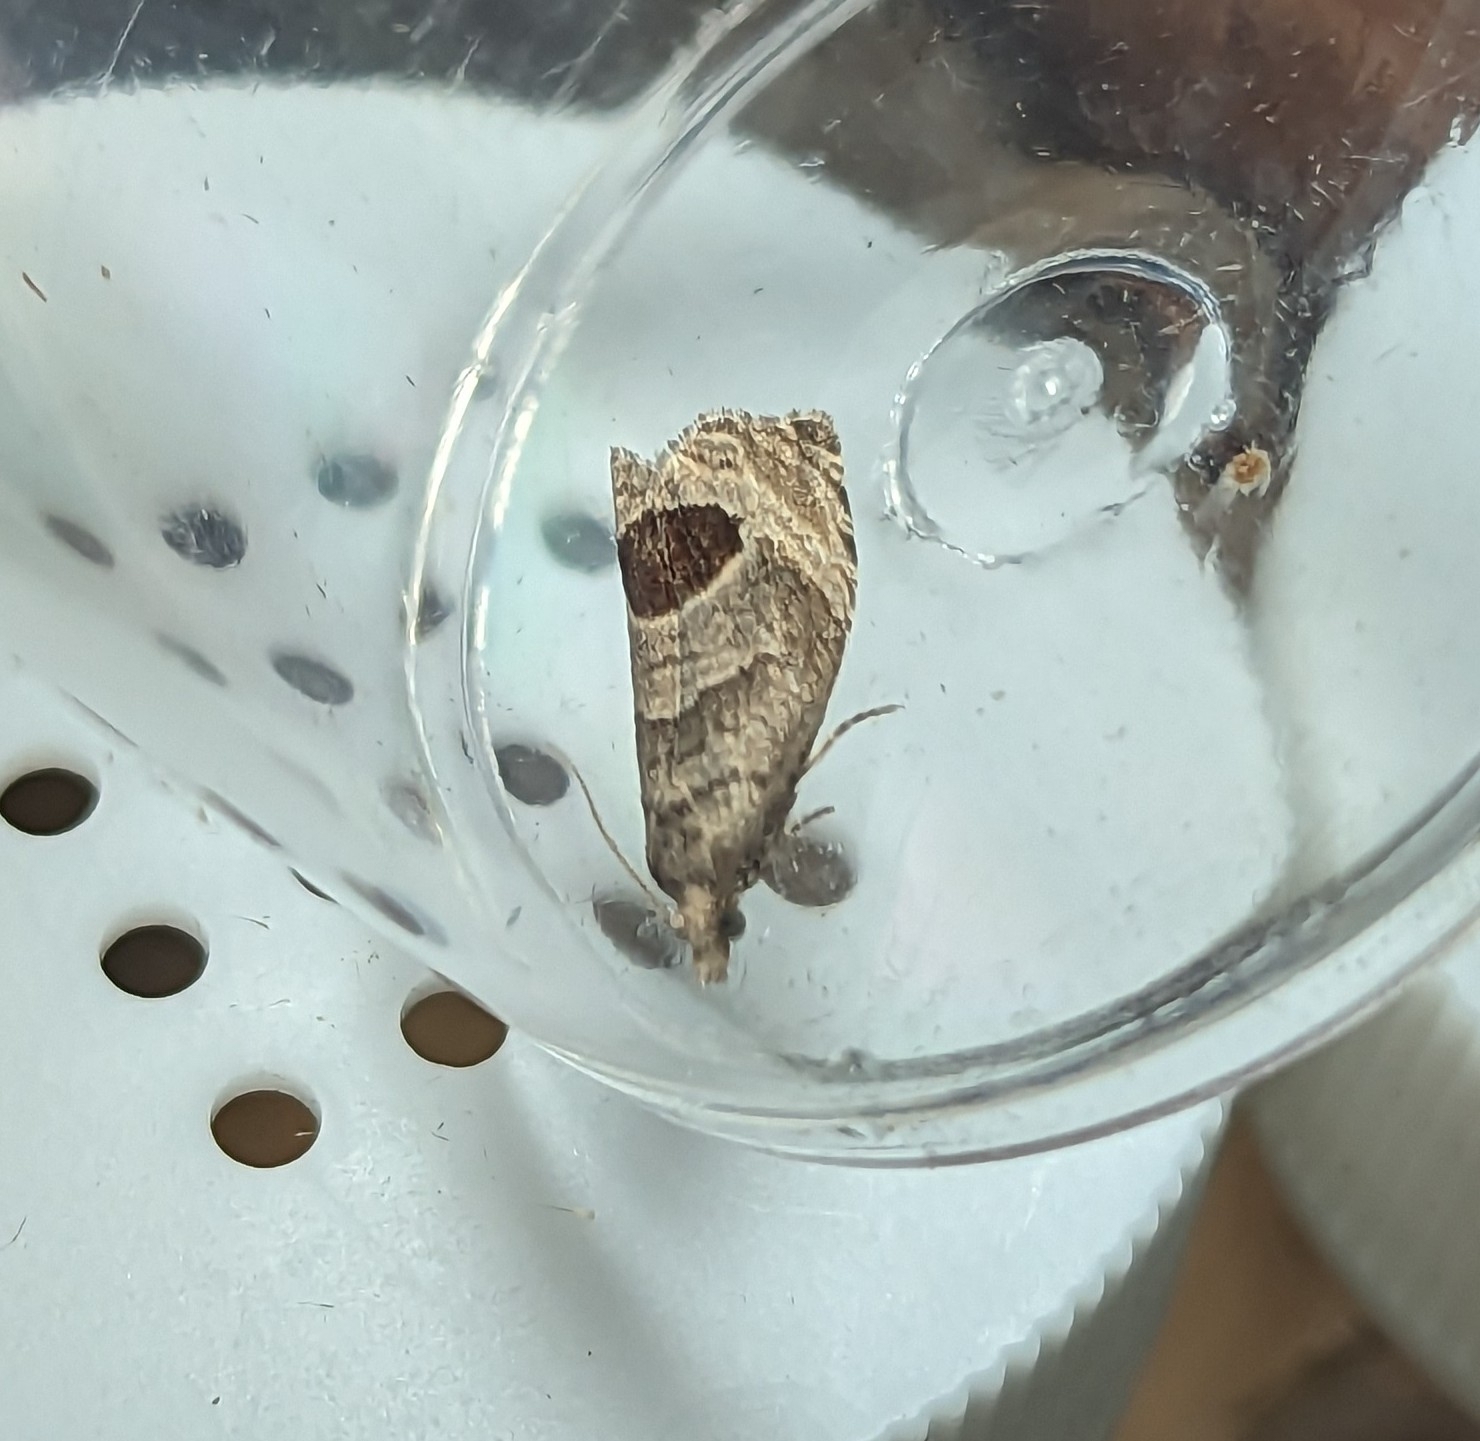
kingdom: Animalia
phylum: Arthropoda
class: Insecta
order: Lepidoptera
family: Tortricidae
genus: Notocelia
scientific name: Notocelia uddmanniana
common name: Bramble shoot moth
